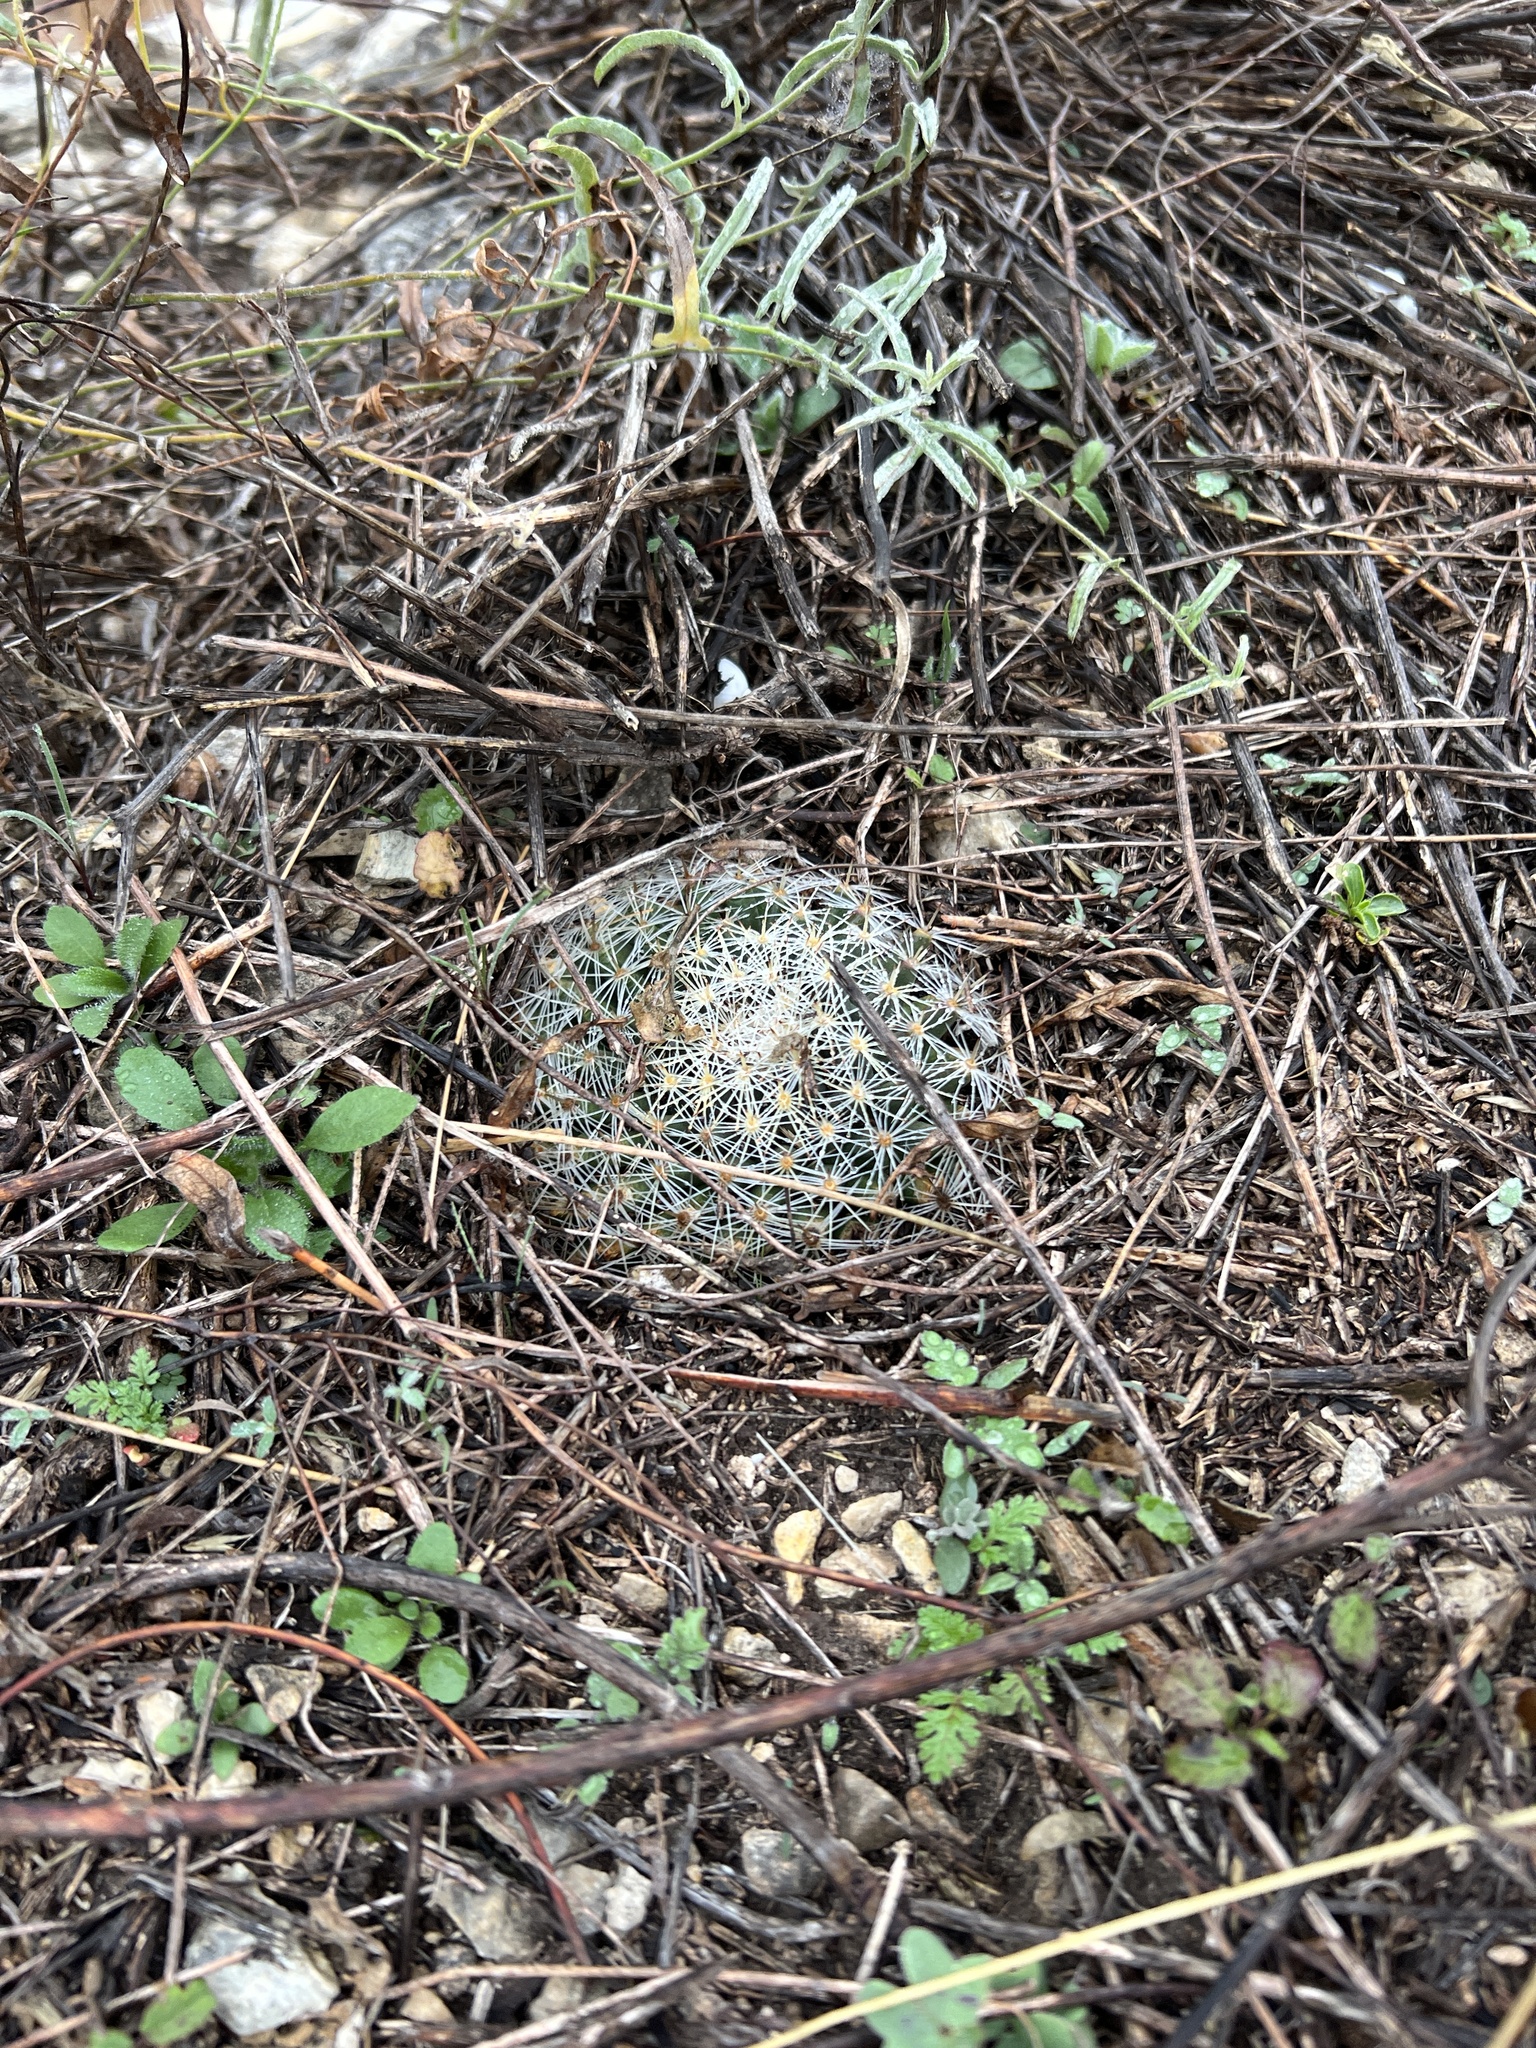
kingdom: Plantae
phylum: Tracheophyta
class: Magnoliopsida
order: Caryophyllales
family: Cactaceae
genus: Mammillaria
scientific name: Mammillaria heyderi
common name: Little nipple cactus
